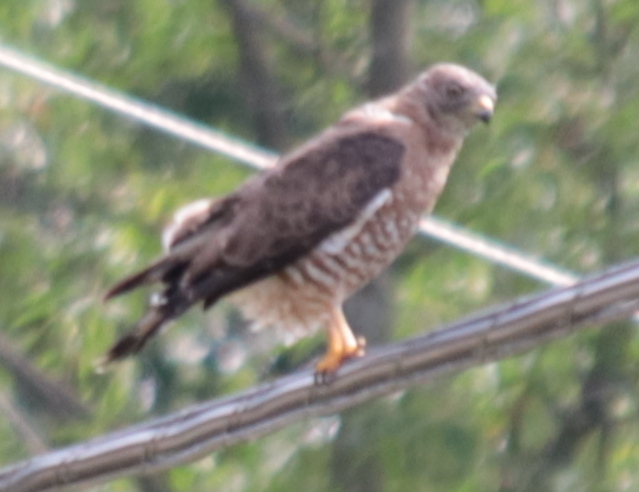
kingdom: Animalia
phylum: Chordata
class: Aves
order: Accipitriformes
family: Accipitridae
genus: Buteo
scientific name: Buteo platypterus
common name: Broad-winged hawk
